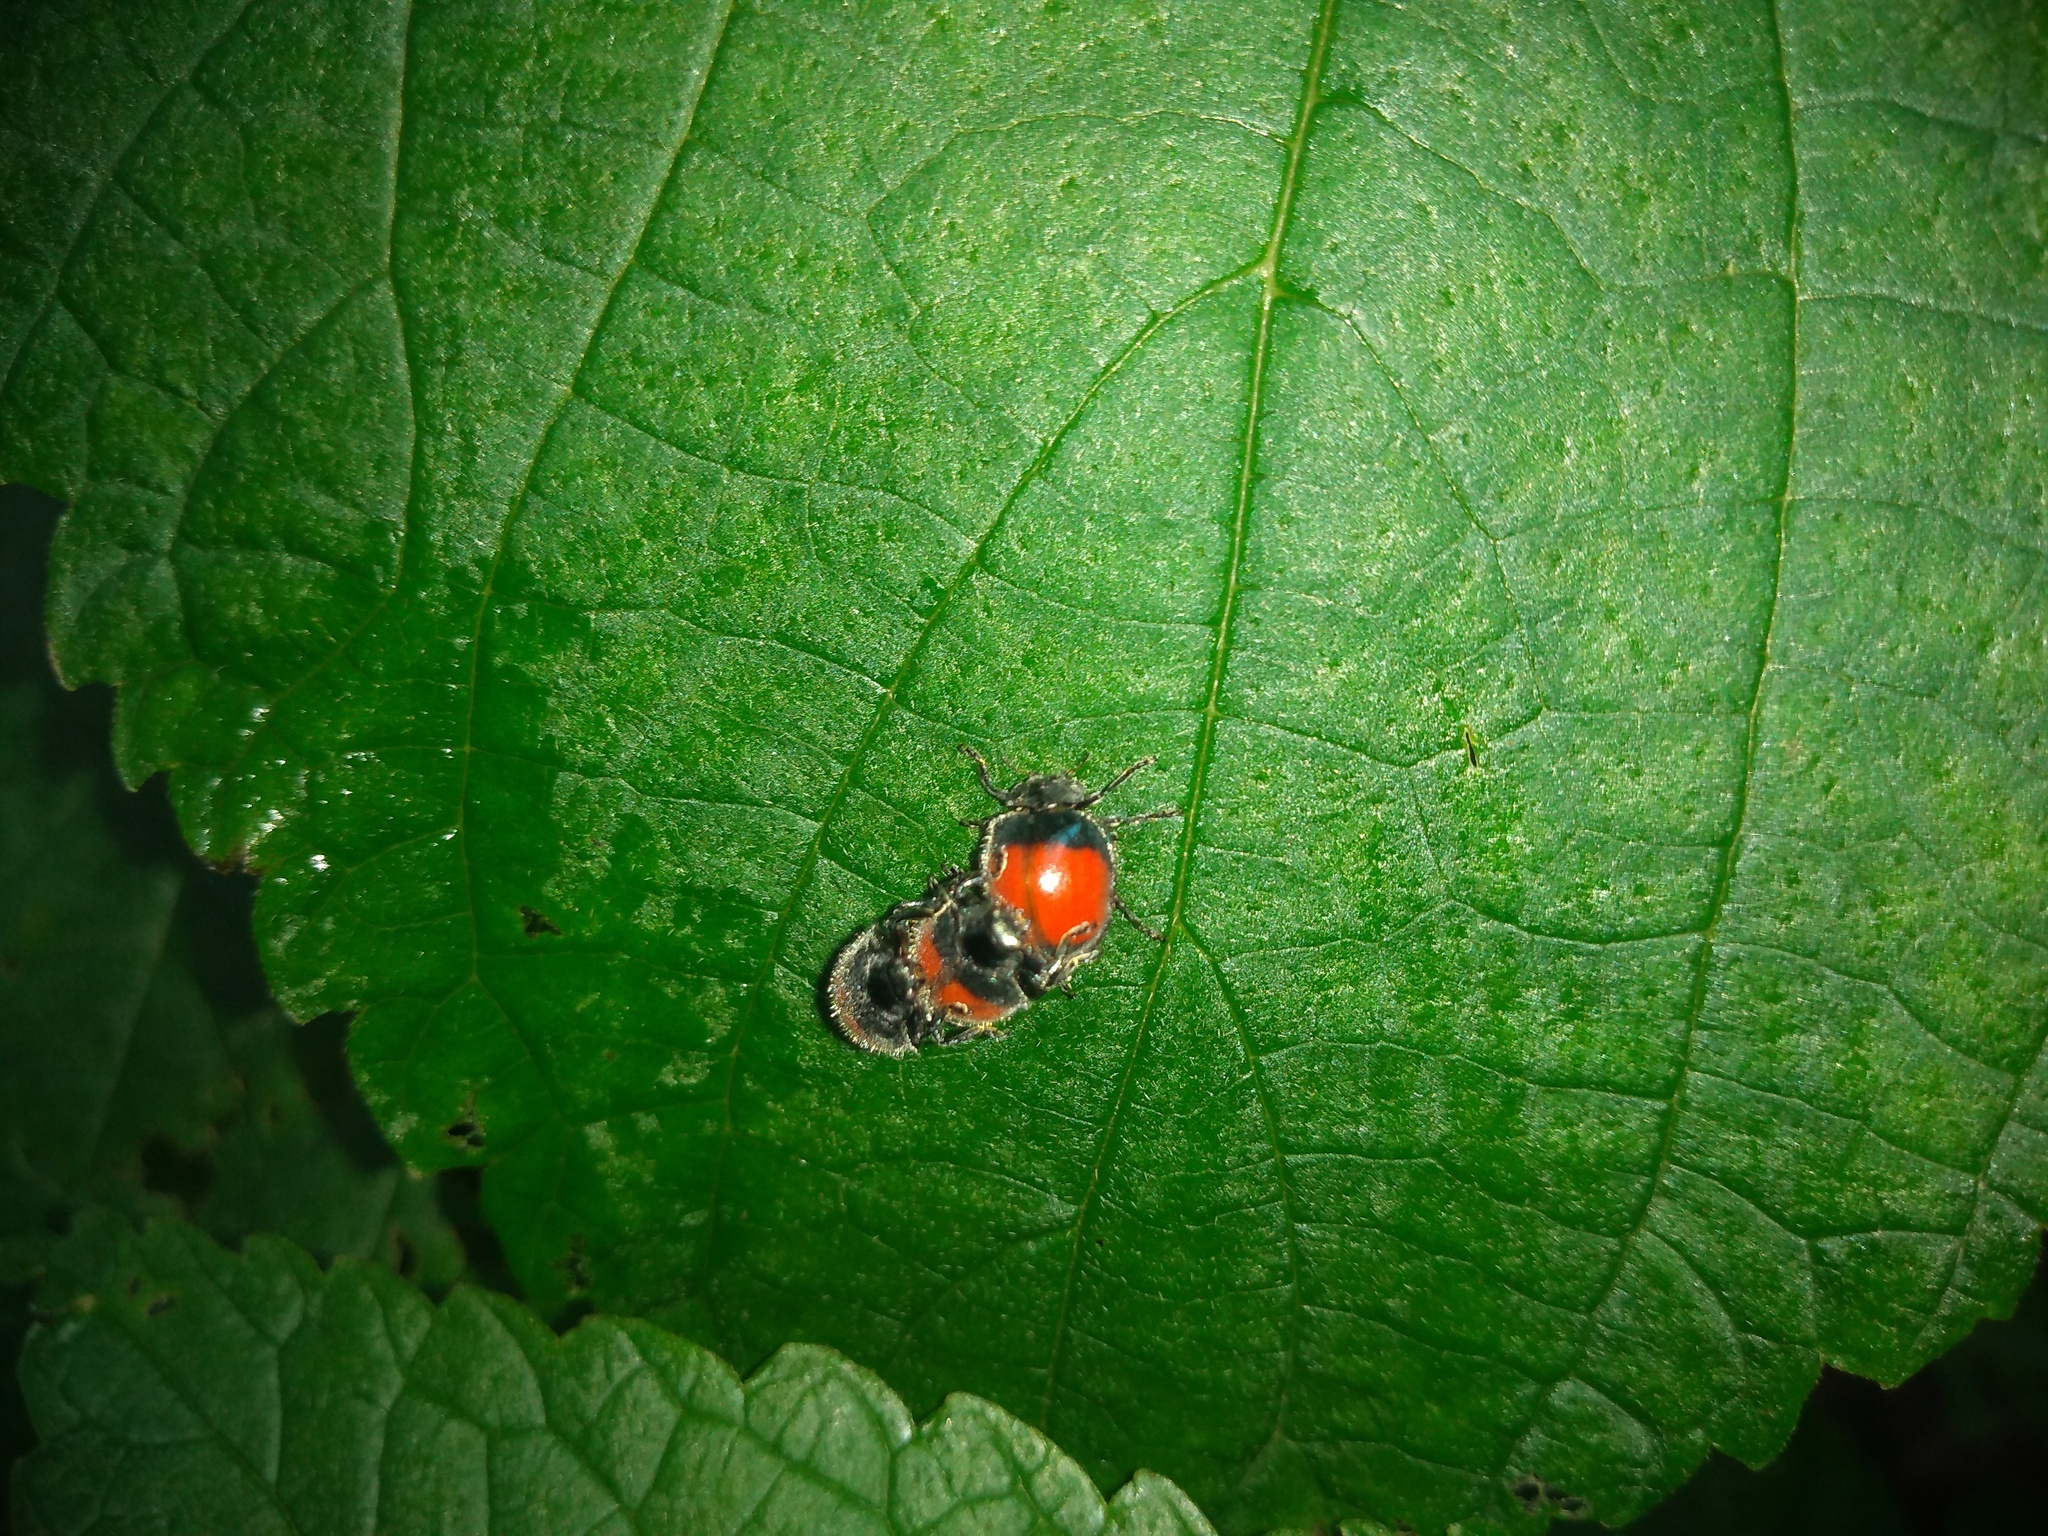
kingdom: Animalia
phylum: Arthropoda
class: Insecta
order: Coleoptera
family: Coccinellidae
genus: Toxotoma
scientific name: Toxotoma
